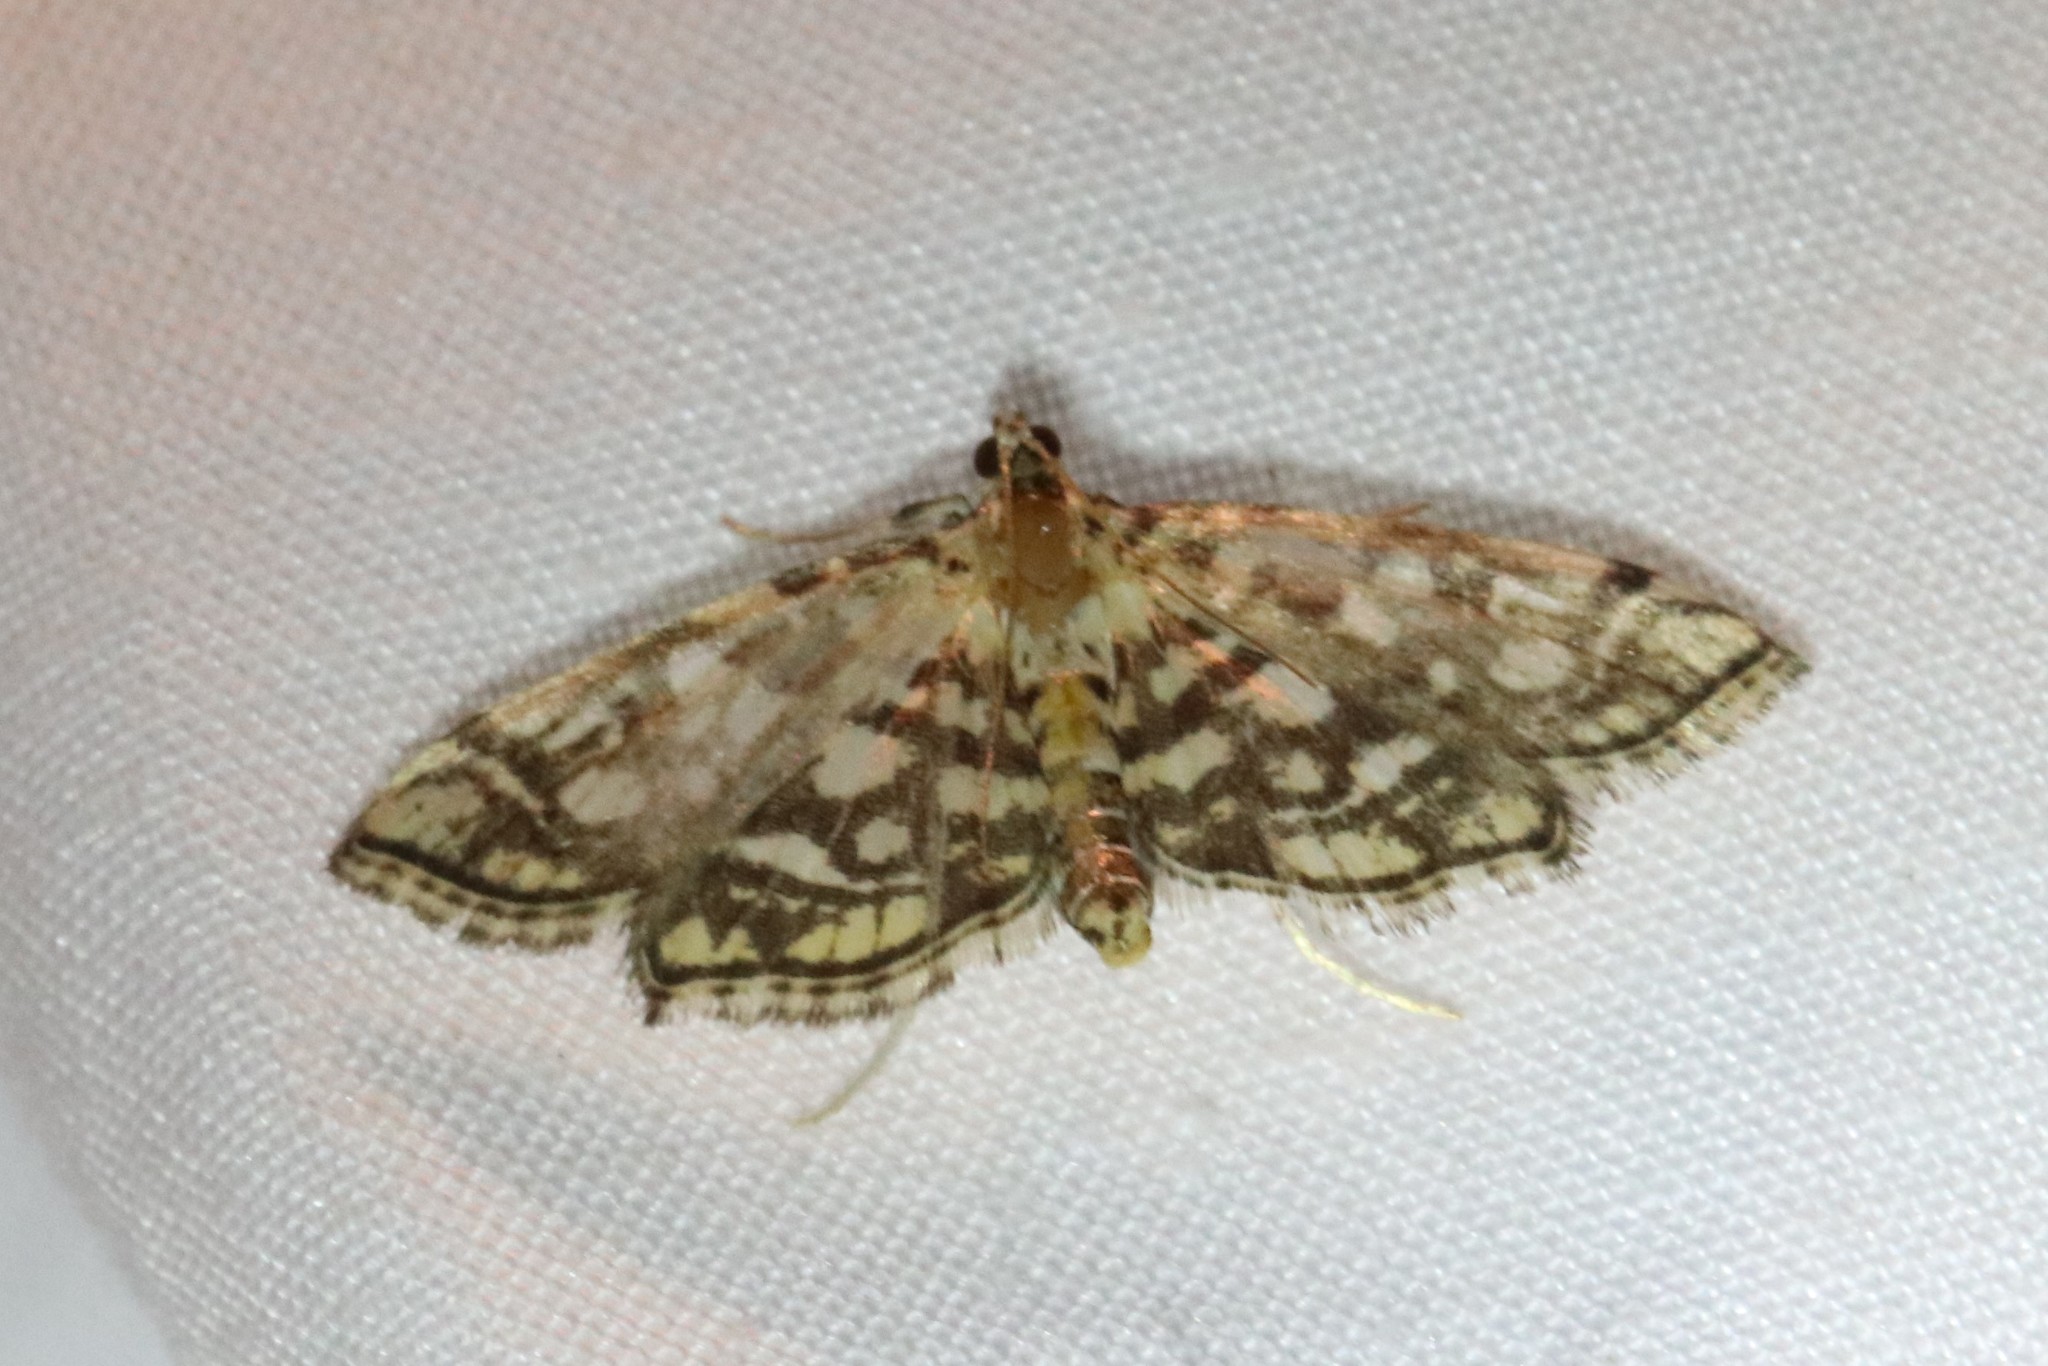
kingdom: Animalia
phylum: Arthropoda
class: Insecta
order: Lepidoptera
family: Crambidae
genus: Lygropia
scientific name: Lygropia rivulalis
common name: Bog lygropia moth
